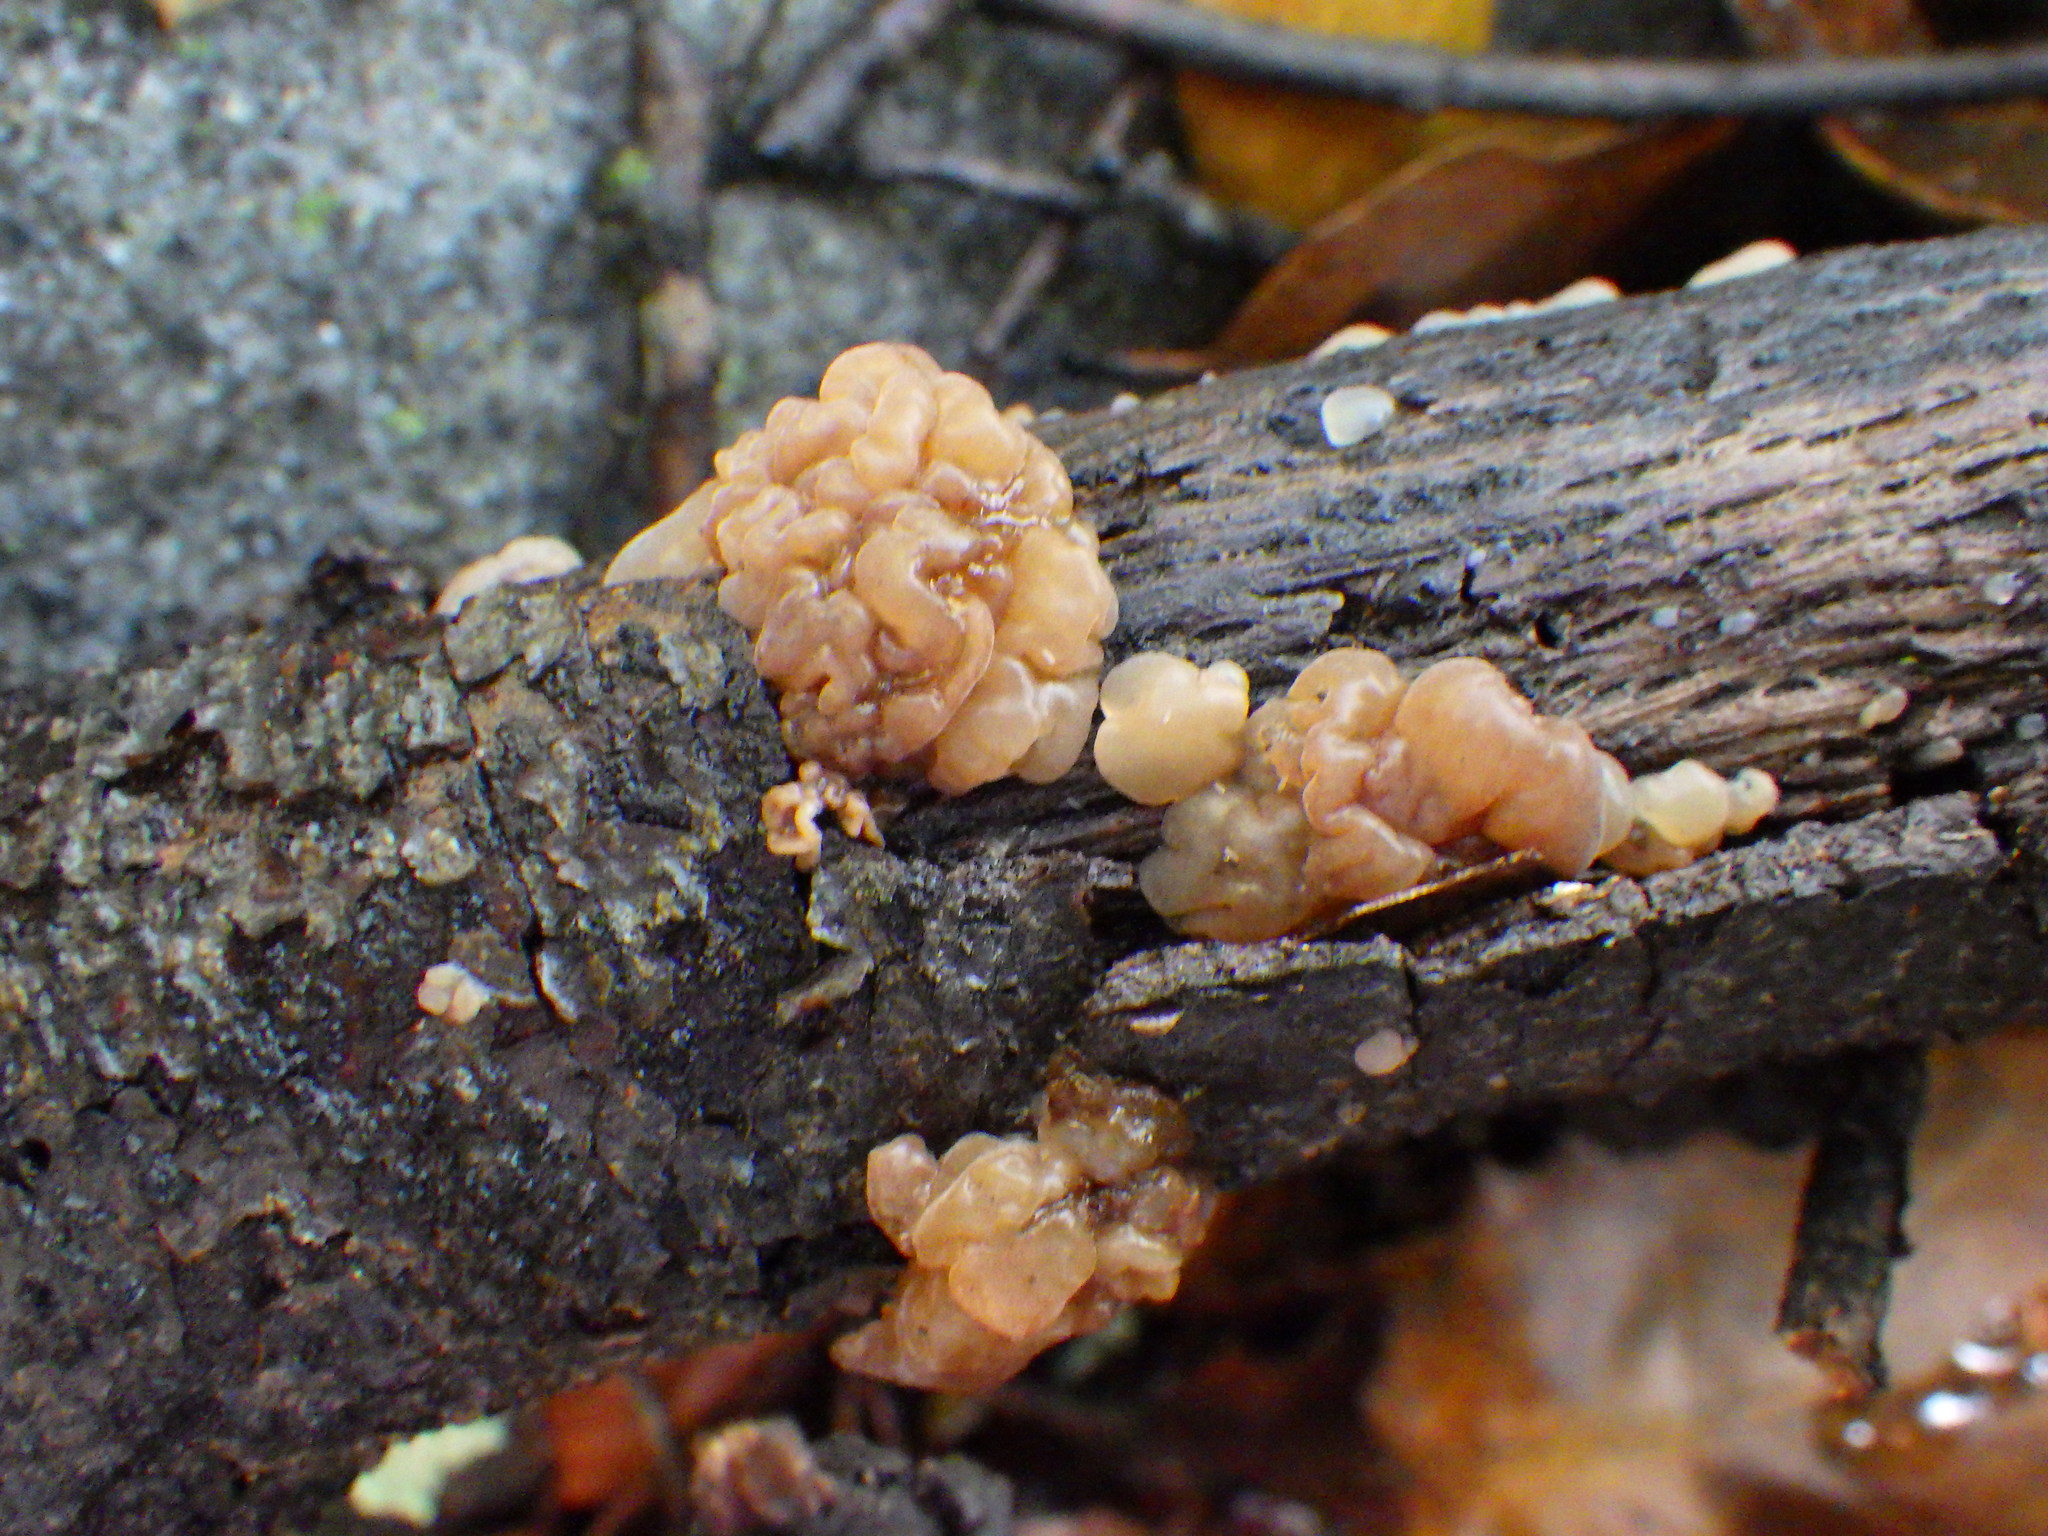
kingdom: Fungi
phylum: Basidiomycota
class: Agaricomycetes
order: Auriculariales
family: Hyaloriaceae
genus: Myxarium
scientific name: Myxarium nucleatum
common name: Crystal brain fungus
